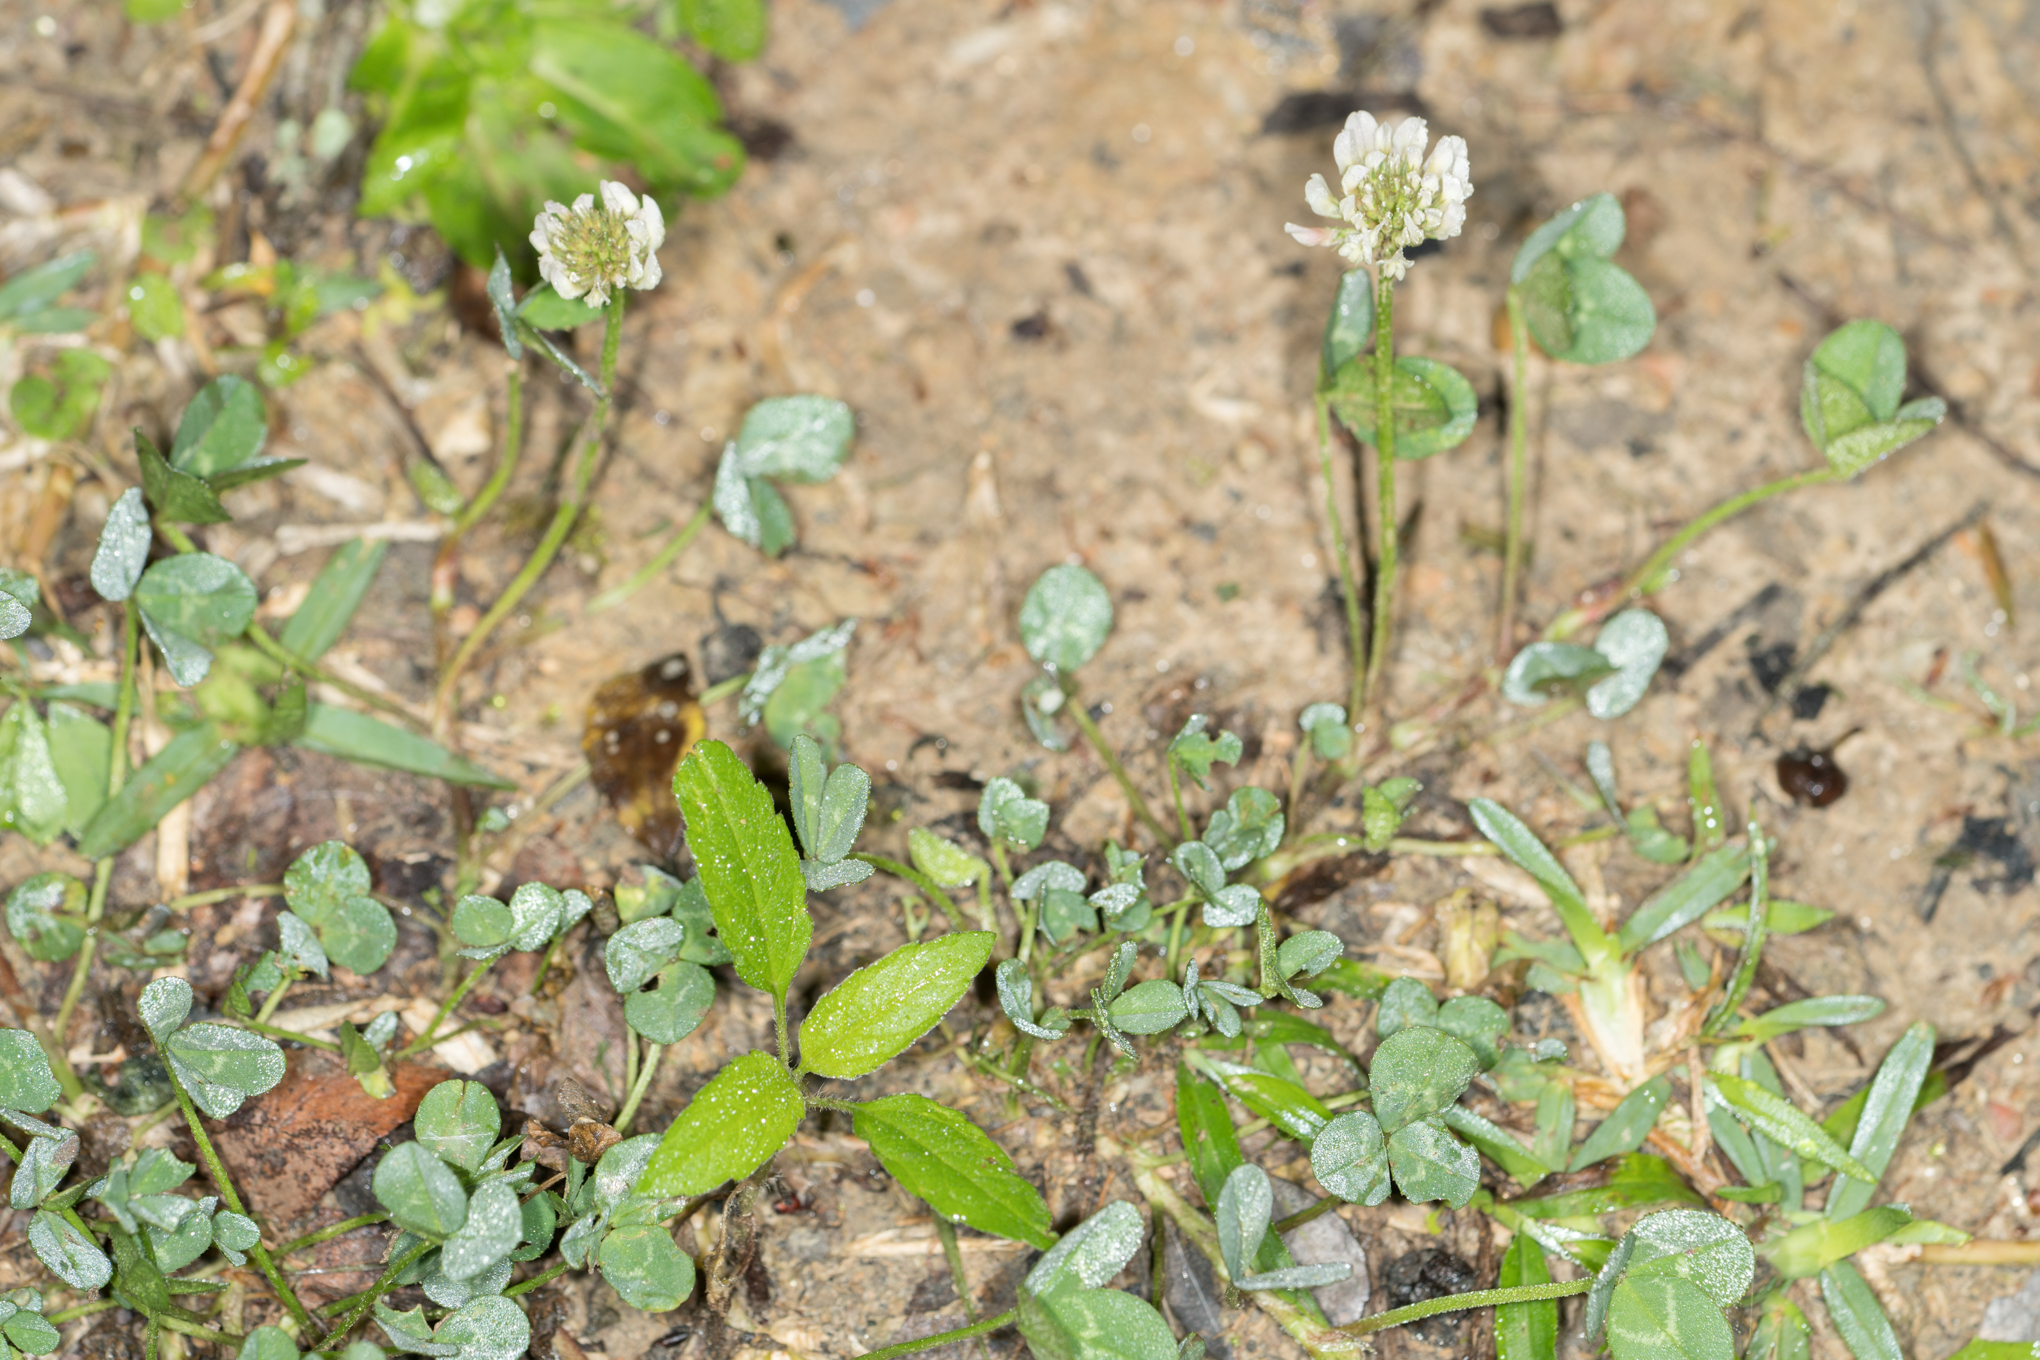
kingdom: Plantae
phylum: Tracheophyta
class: Magnoliopsida
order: Fabales
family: Fabaceae
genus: Trifolium
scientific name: Trifolium repens
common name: White clover
